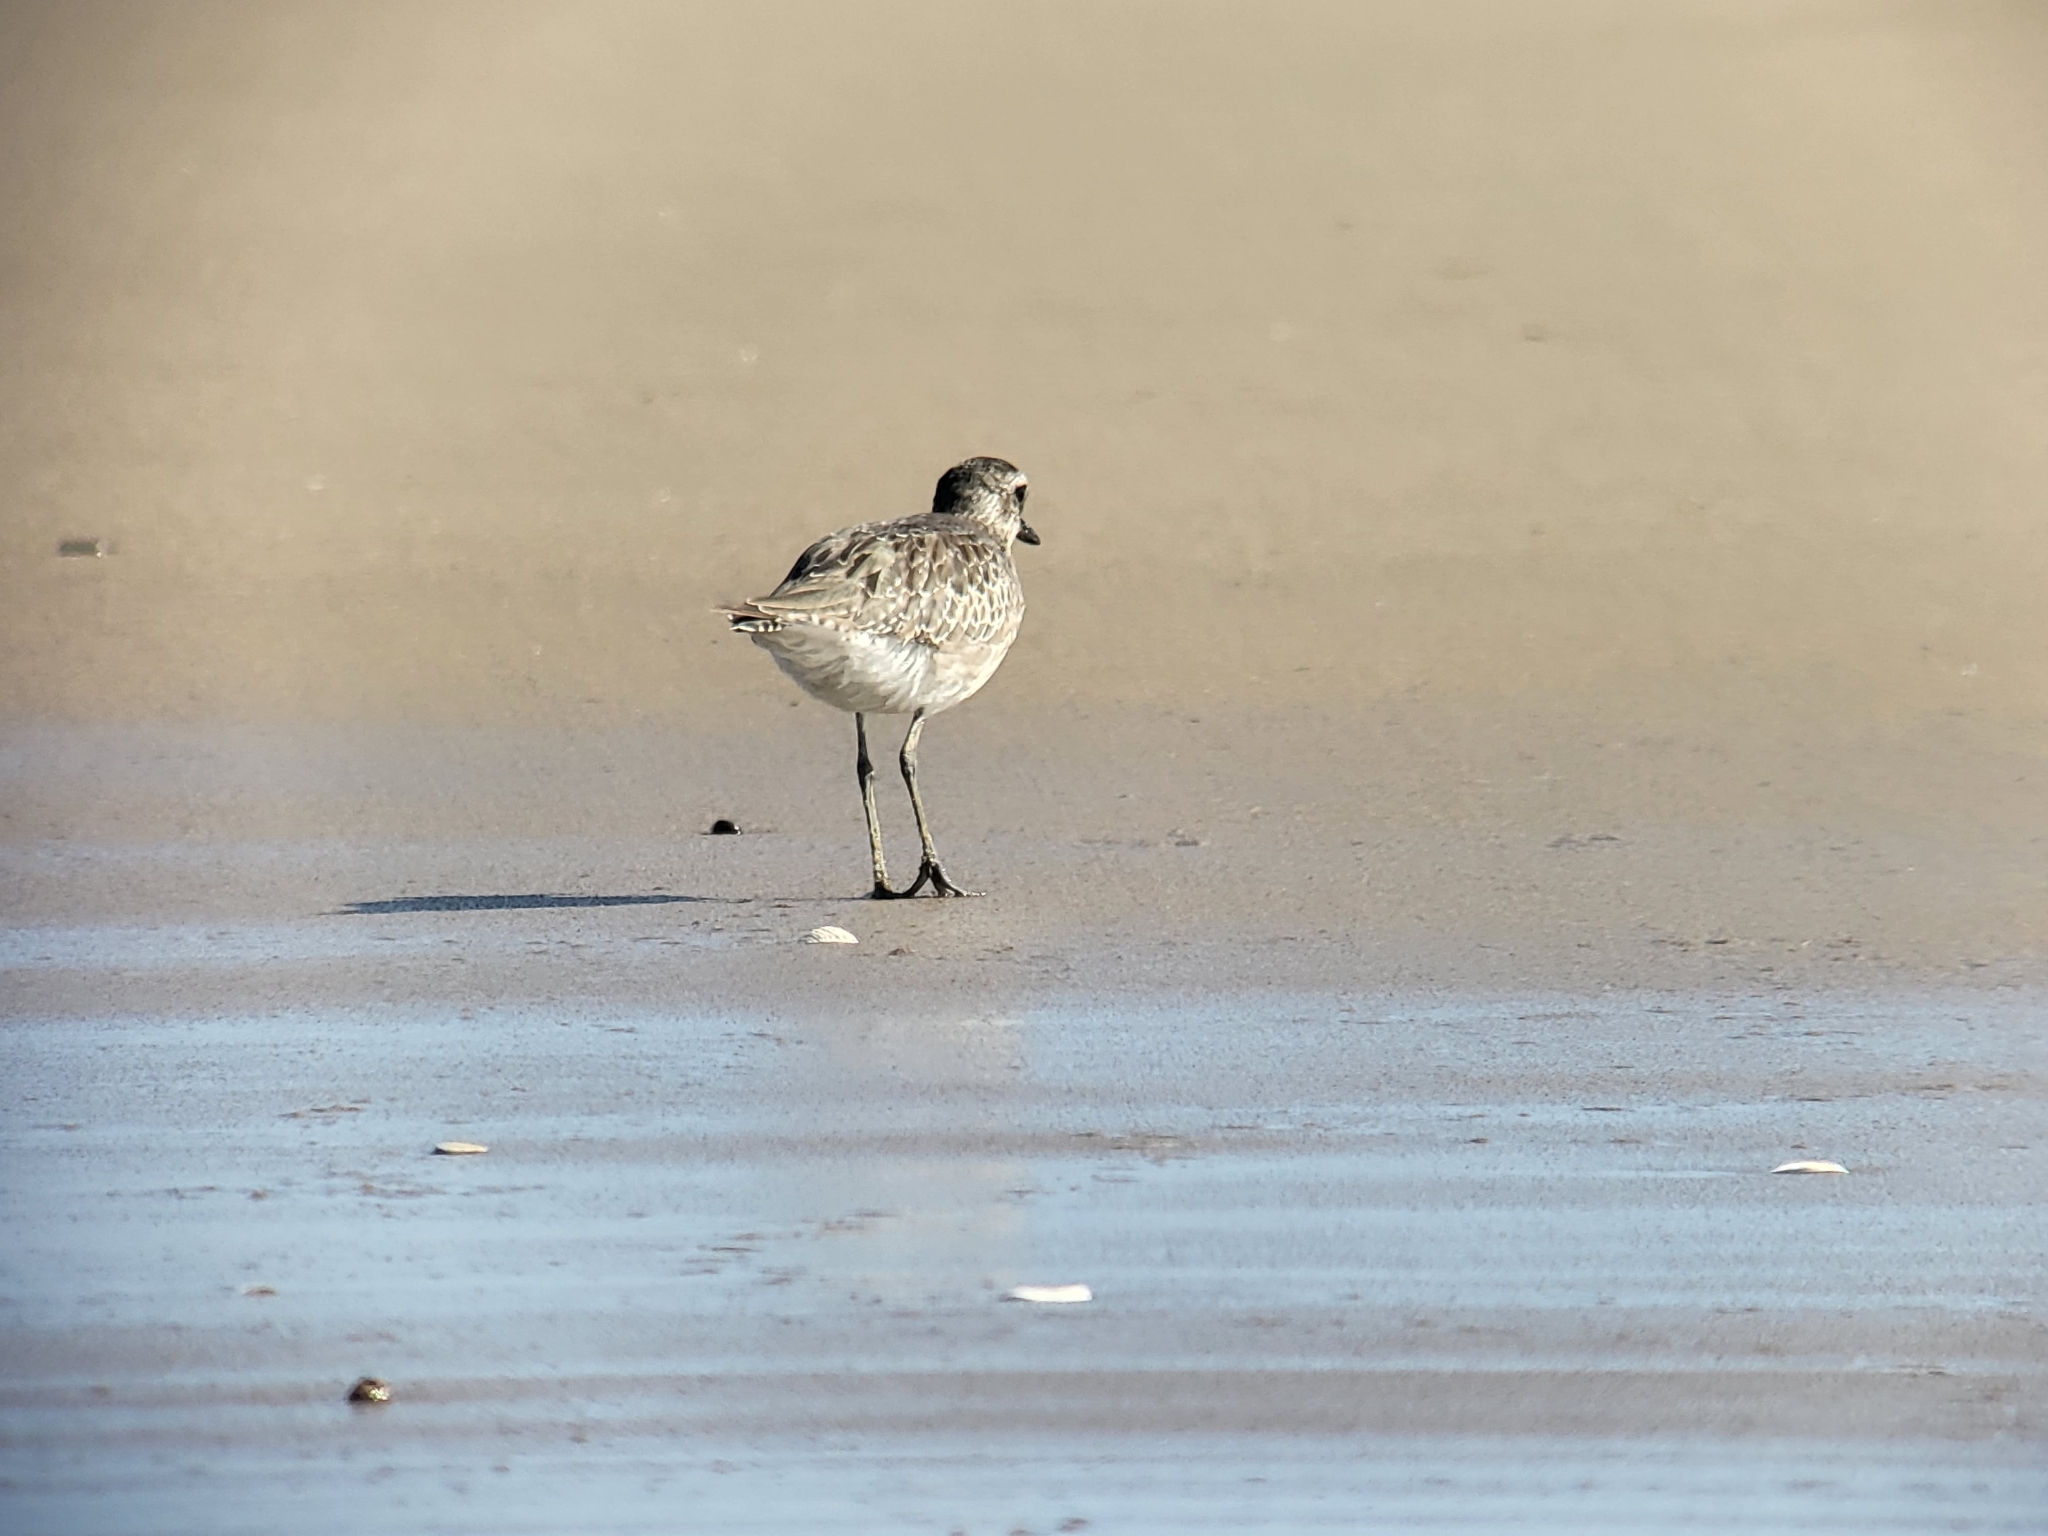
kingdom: Animalia
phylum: Chordata
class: Aves
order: Charadriiformes
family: Charadriidae
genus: Pluvialis
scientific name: Pluvialis squatarola
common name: Grey plover
